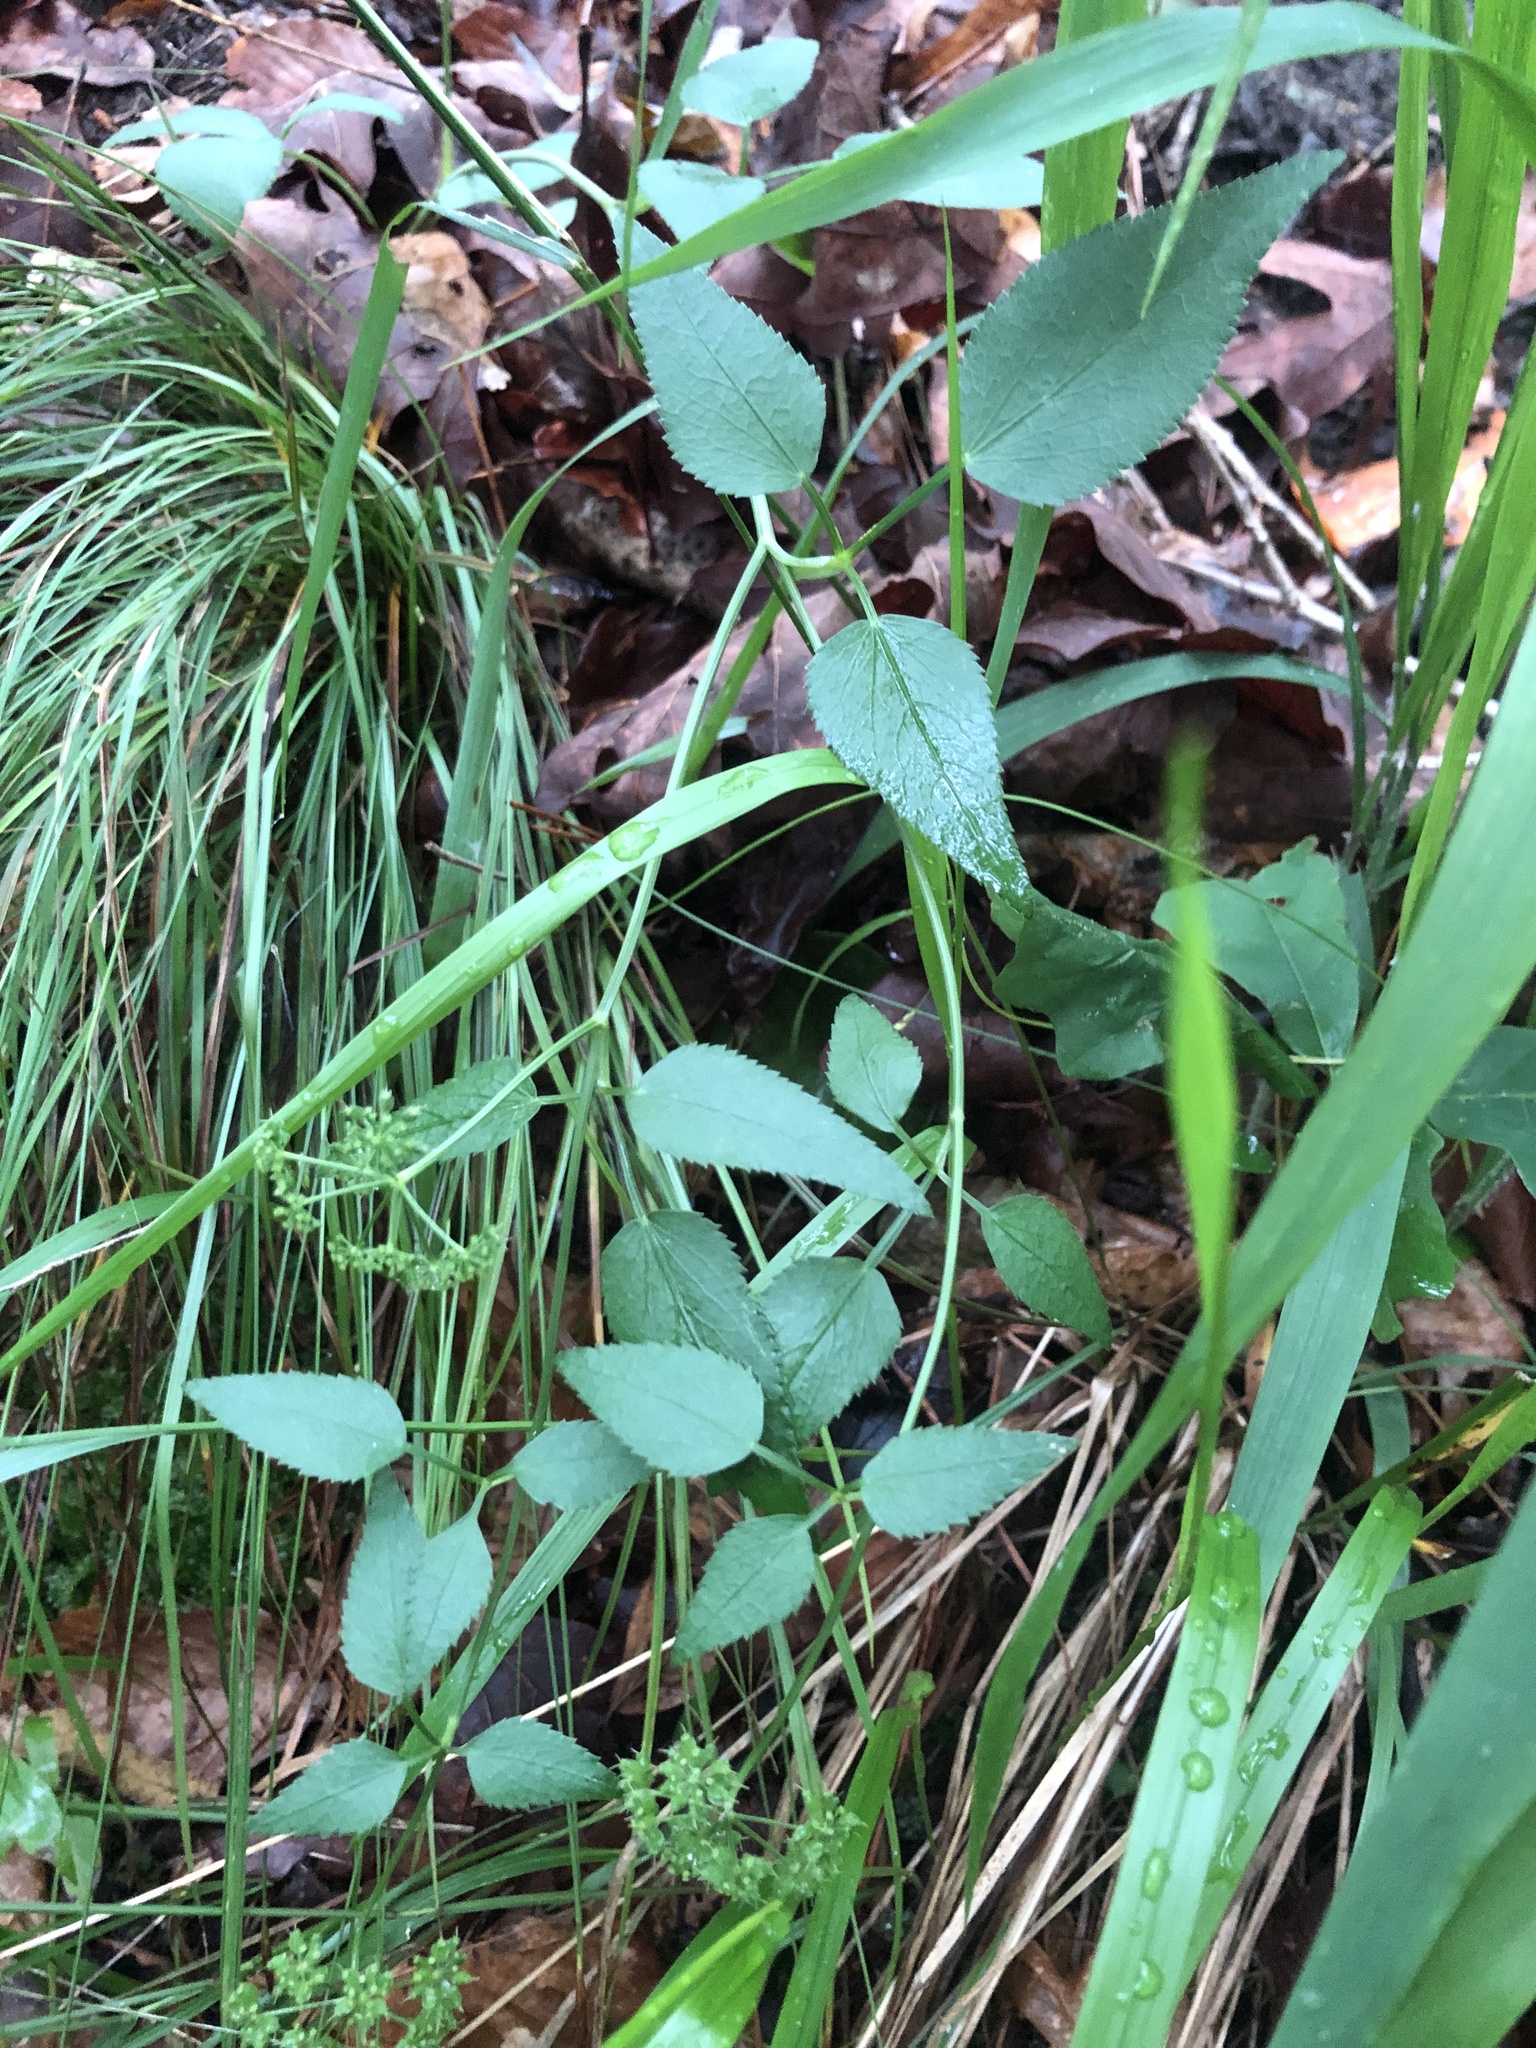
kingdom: Plantae
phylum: Tracheophyta
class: Magnoliopsida
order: Apiales
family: Apiaceae
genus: Thaspium
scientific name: Thaspium trifoliatum
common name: Purple meadow-parsnip
